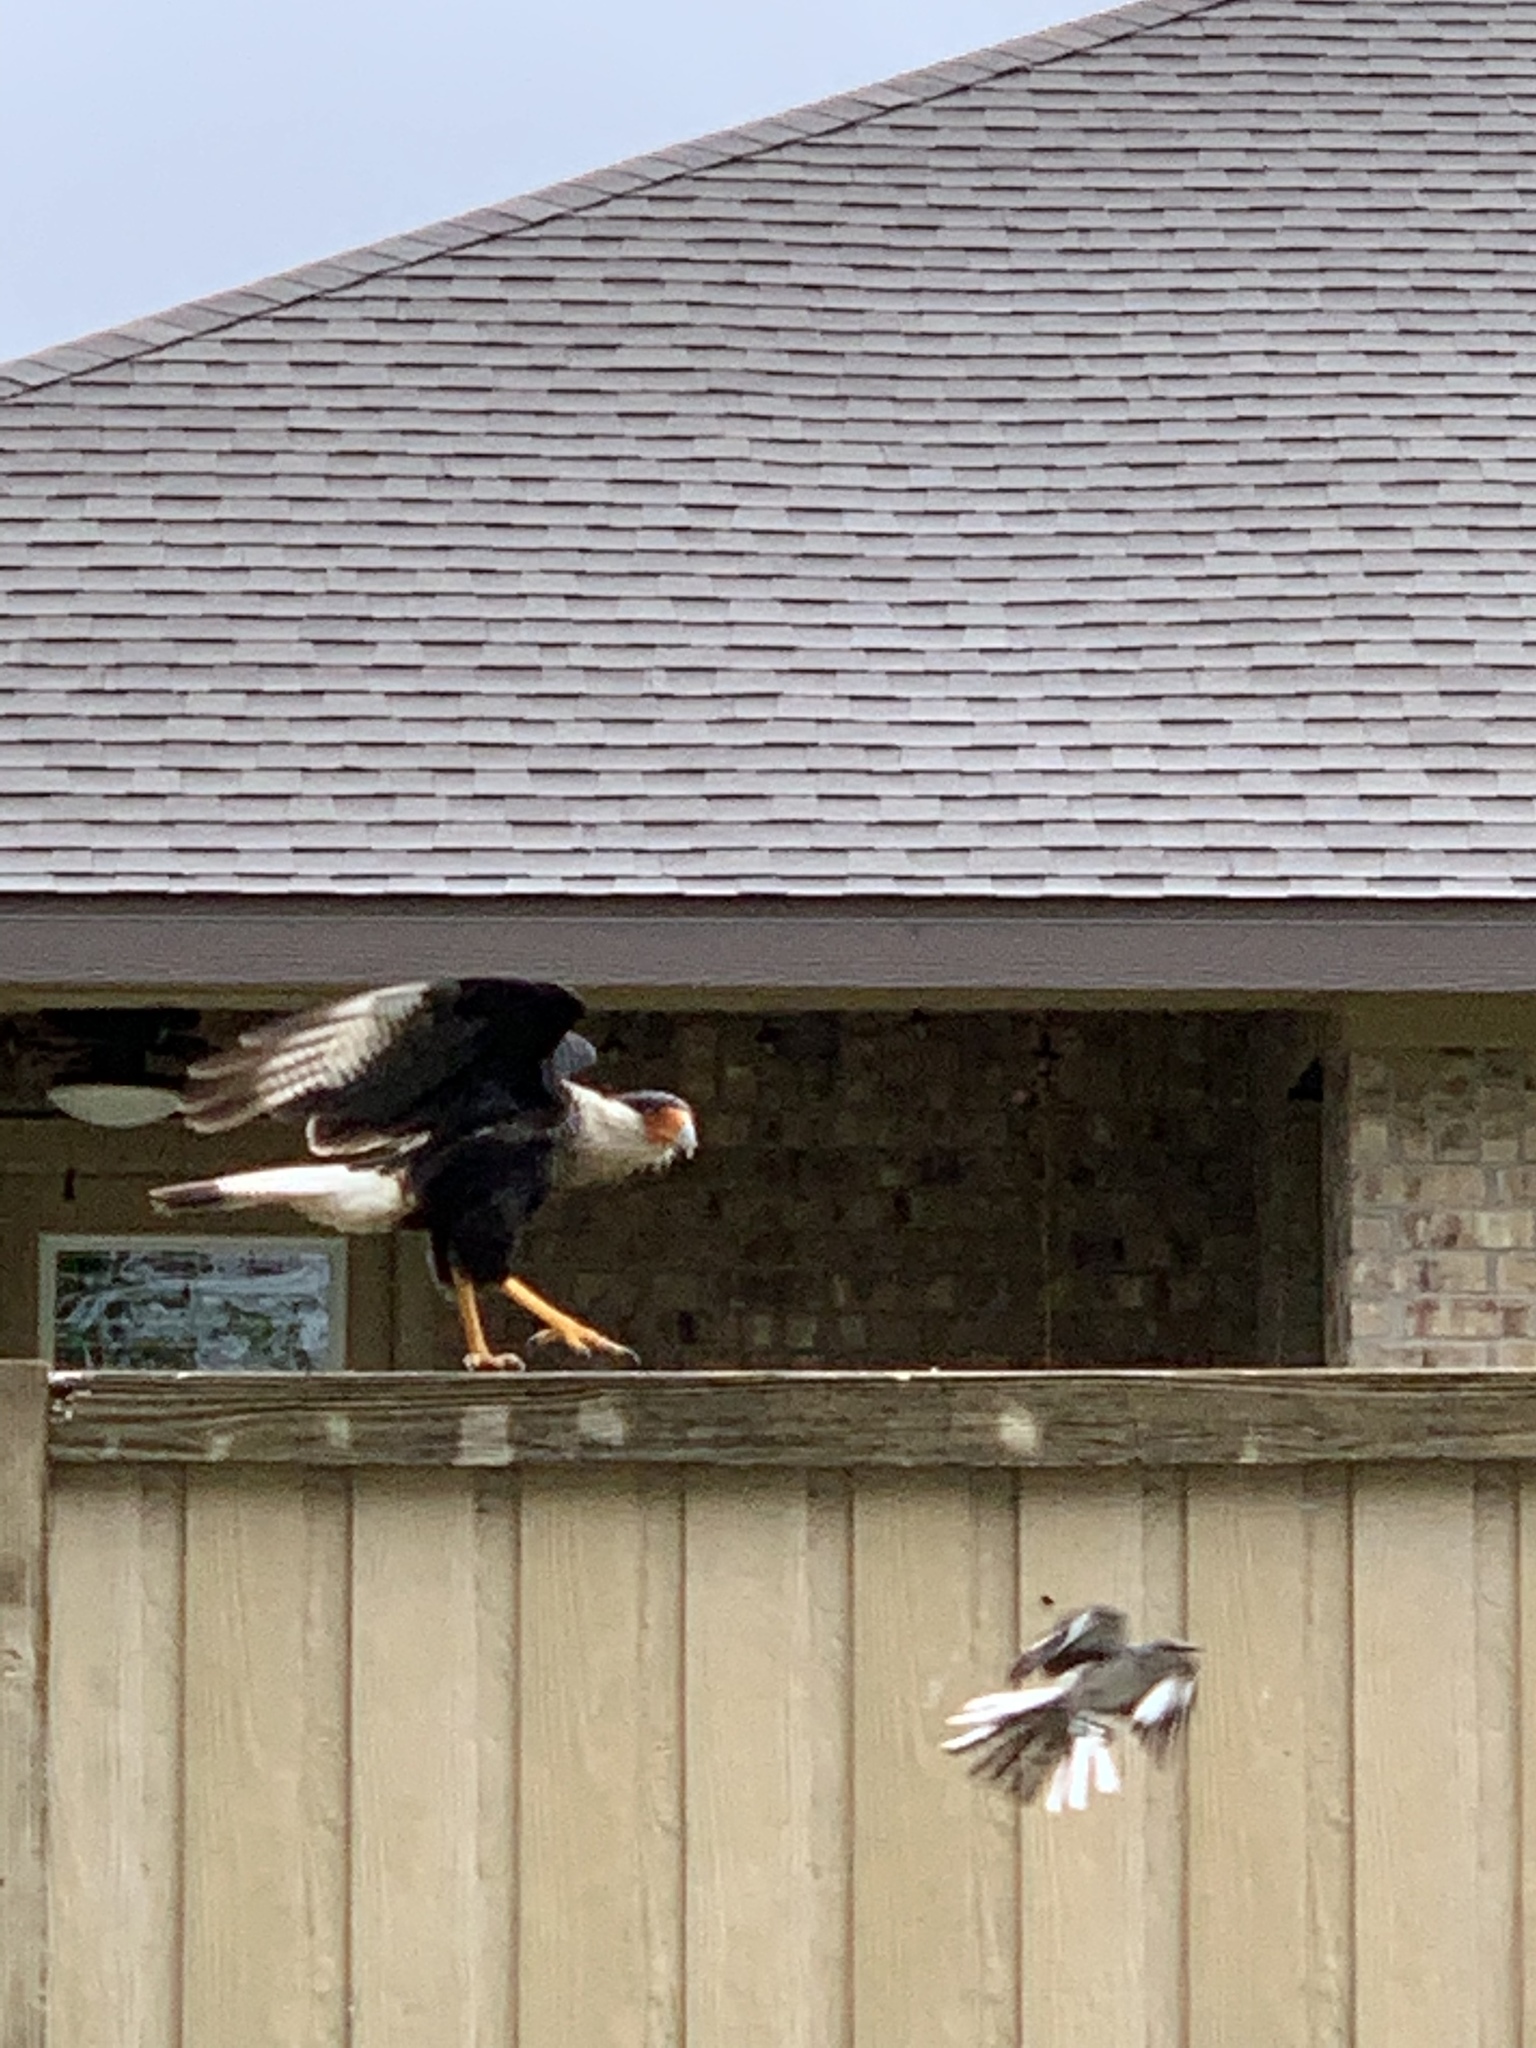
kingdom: Animalia
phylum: Chordata
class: Aves
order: Falconiformes
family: Falconidae
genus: Caracara
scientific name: Caracara plancus
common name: Southern caracara
